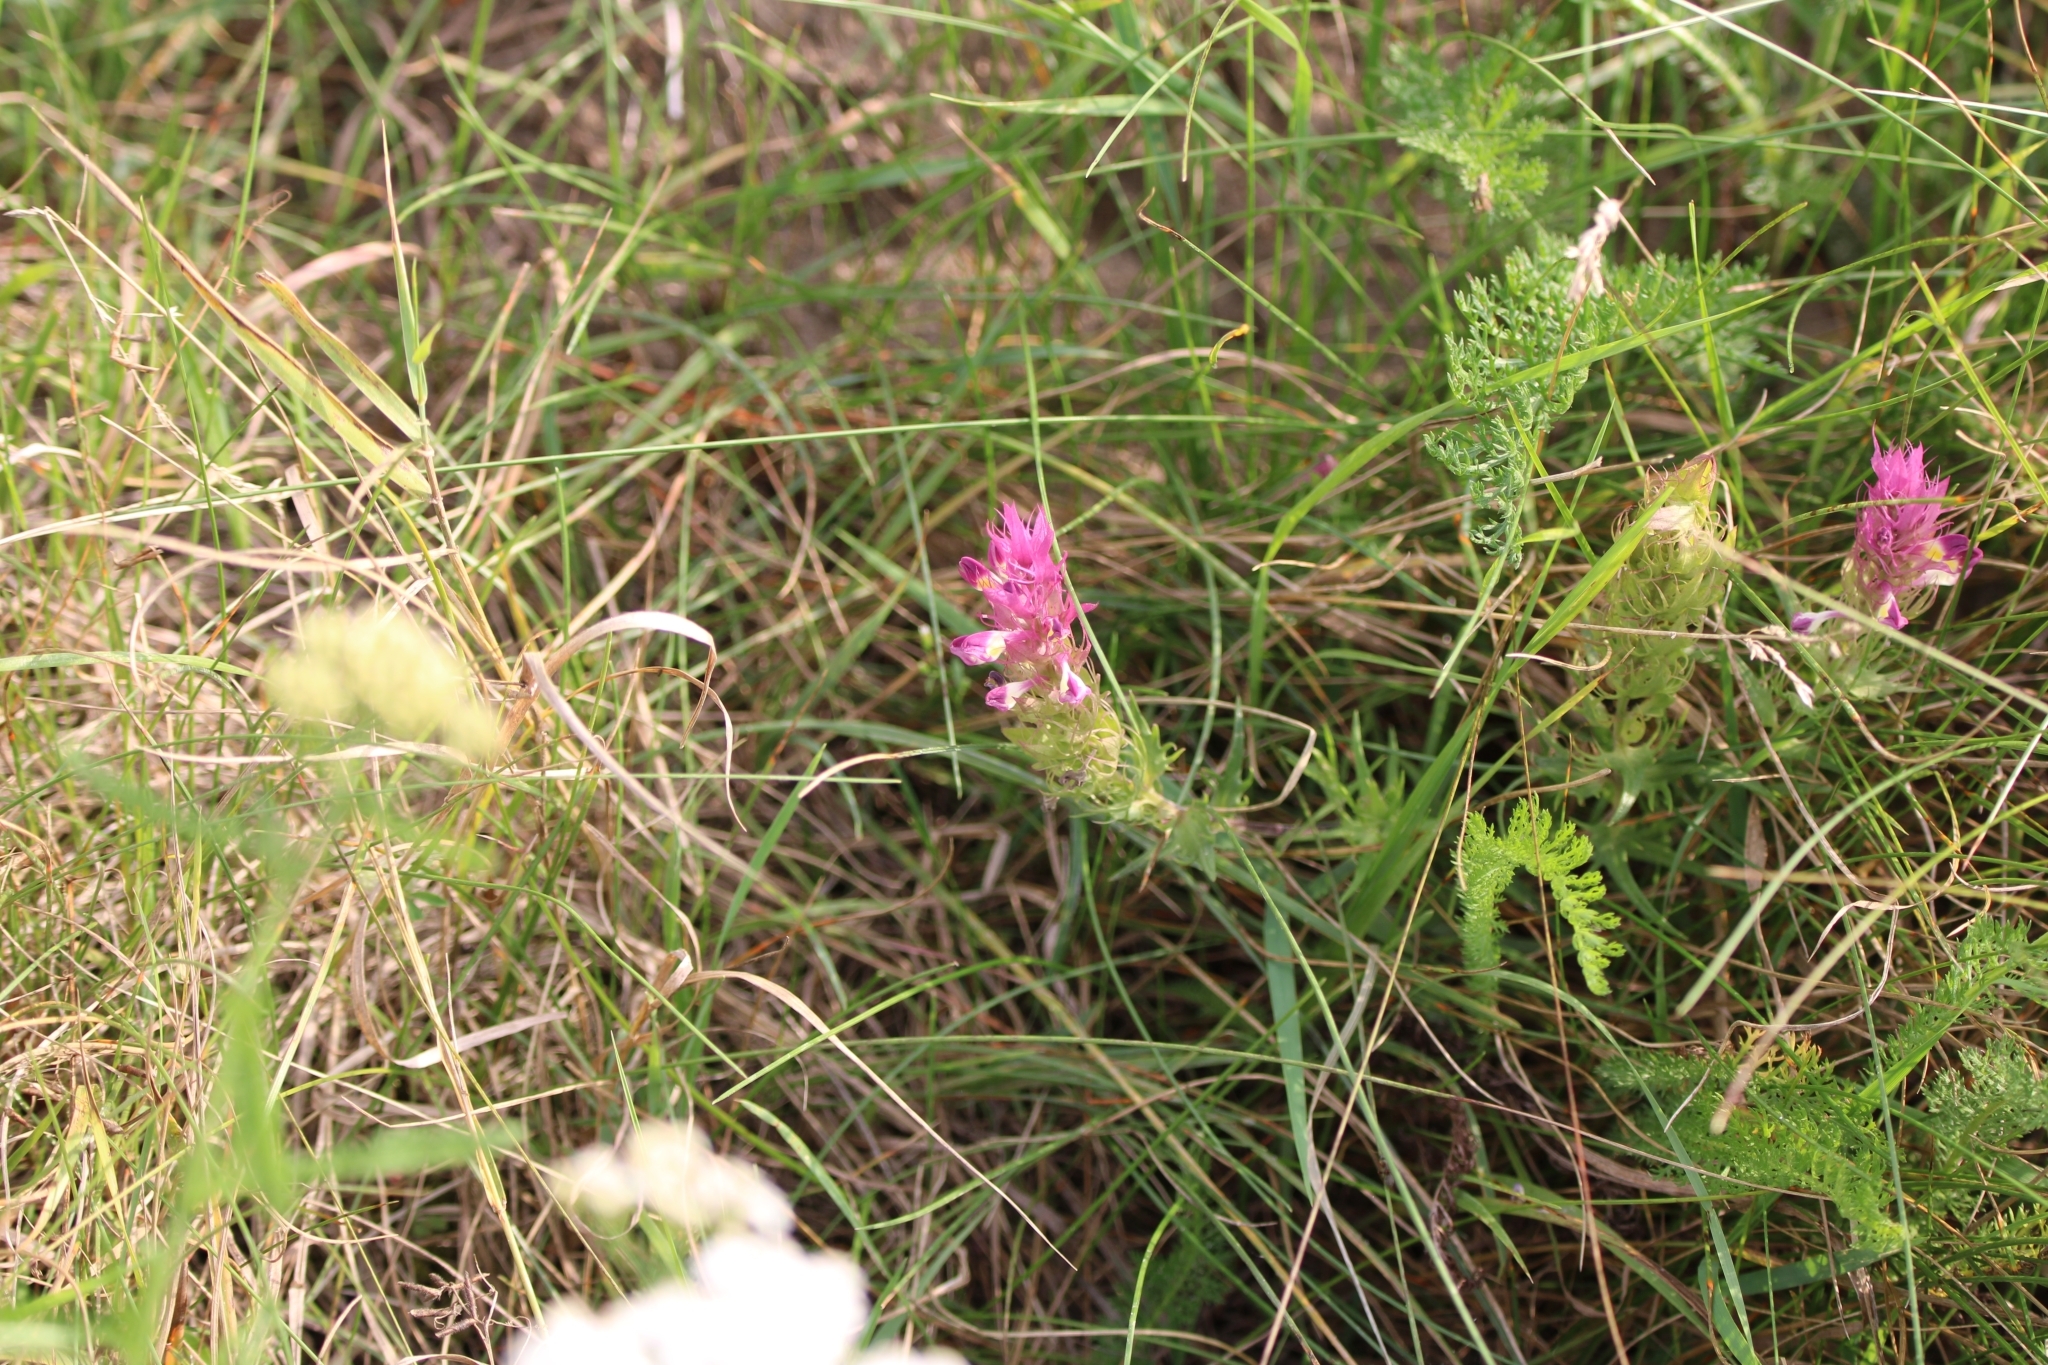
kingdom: Plantae
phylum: Tracheophyta
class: Magnoliopsida
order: Lamiales
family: Orobanchaceae
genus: Melampyrum
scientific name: Melampyrum arvense
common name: Field cow-wheat
